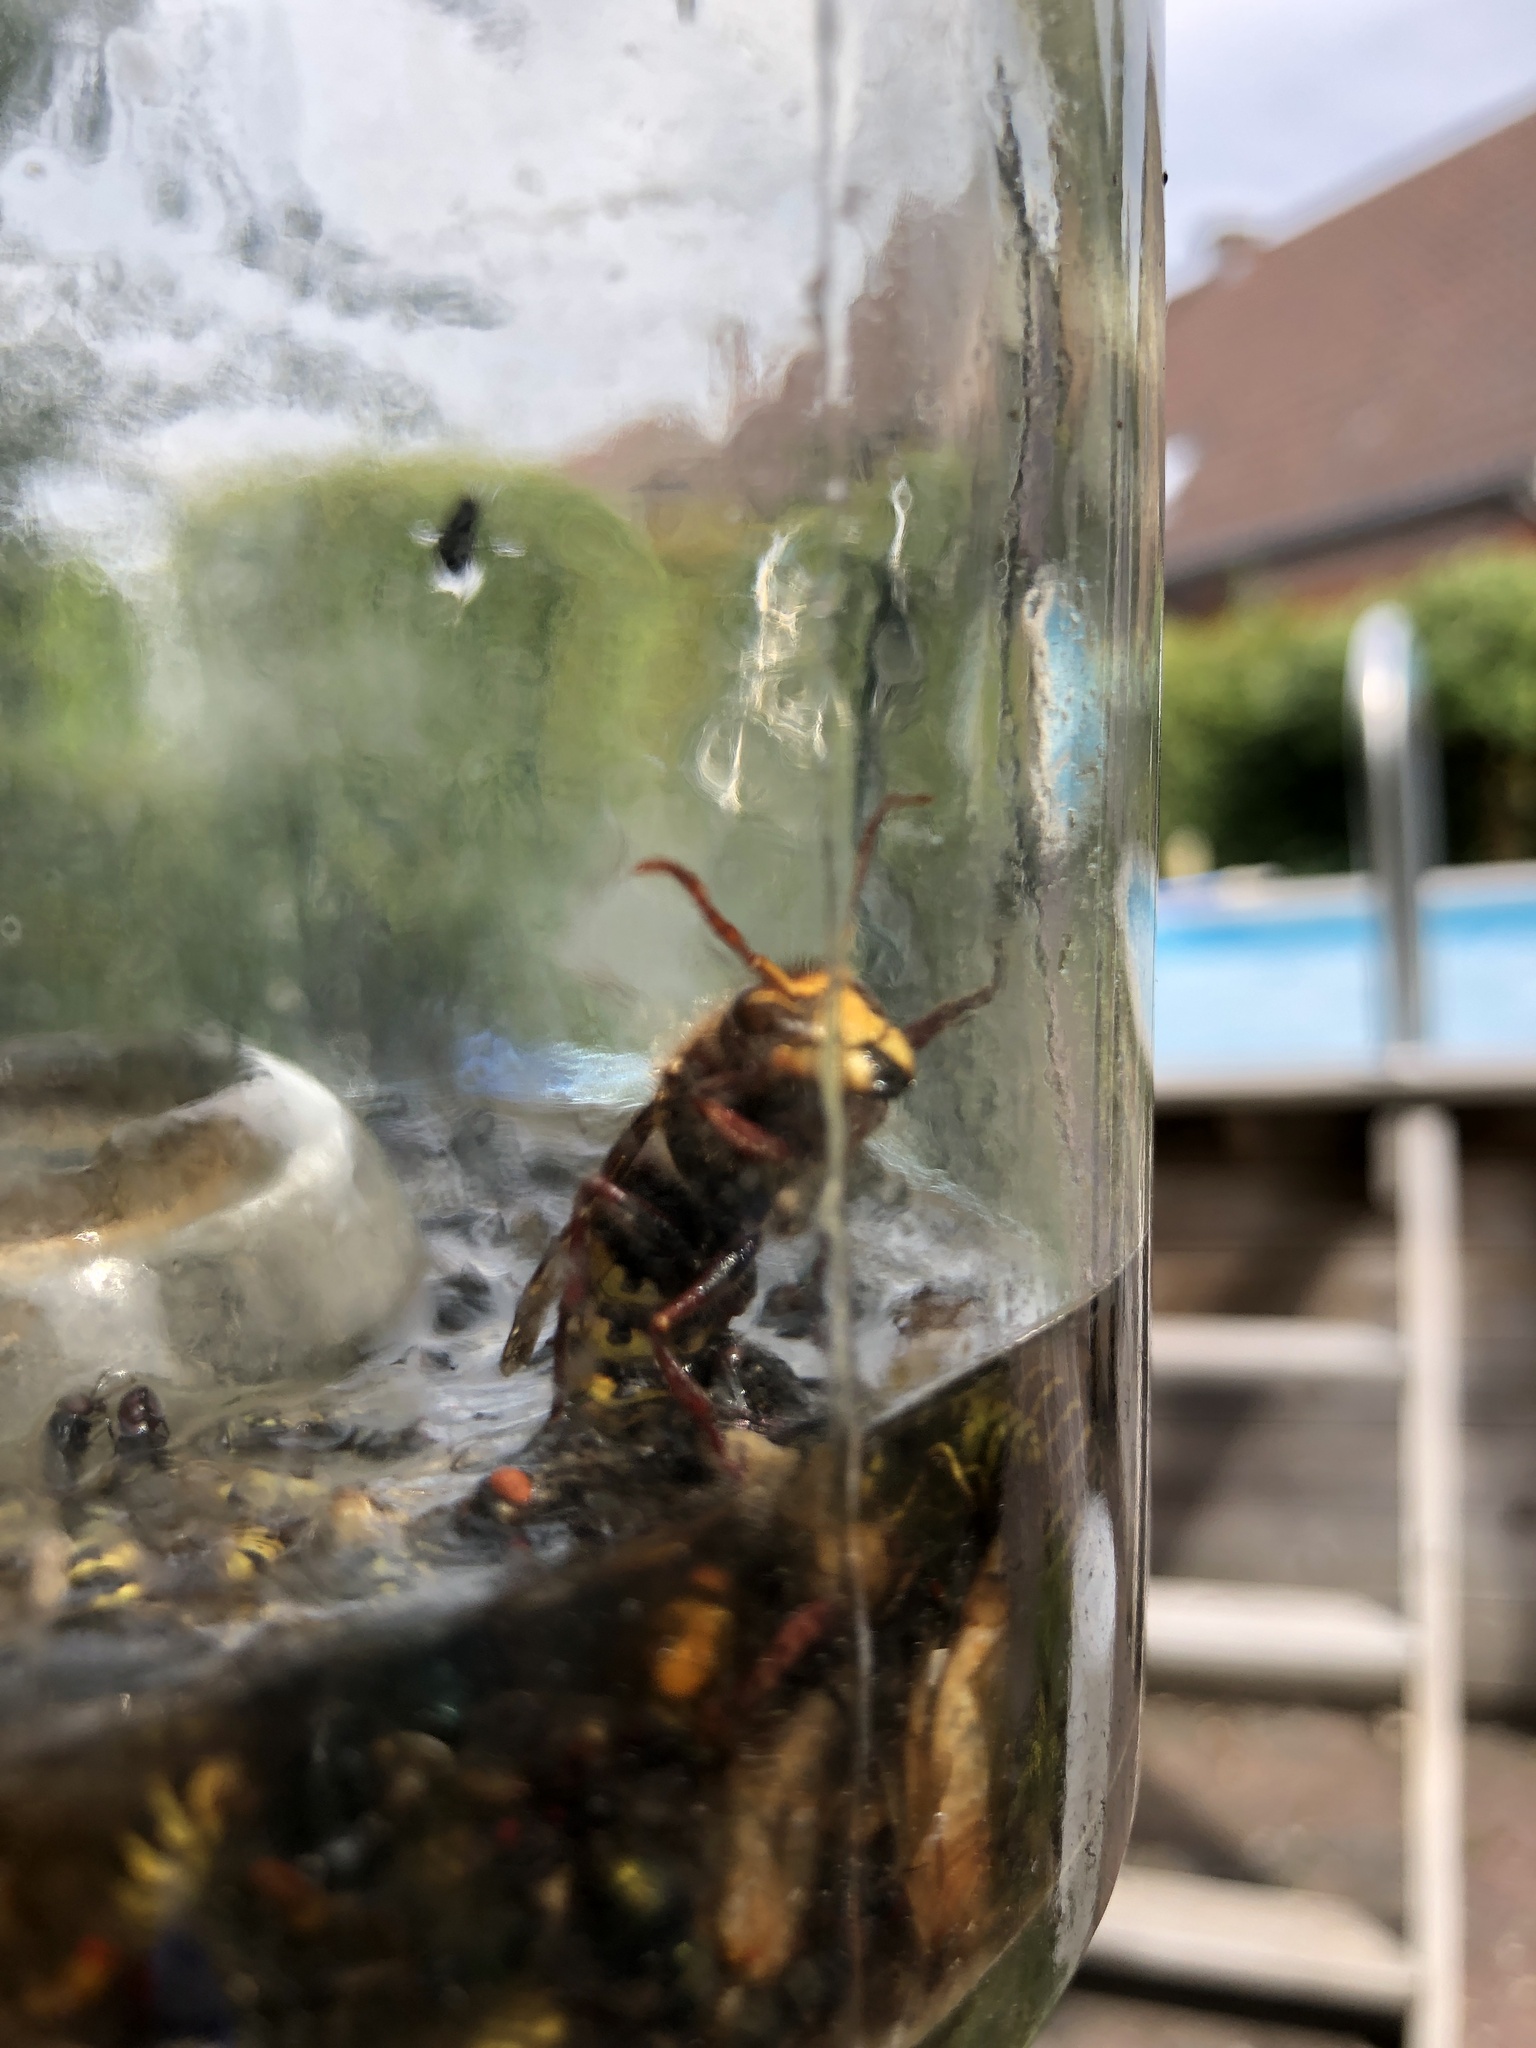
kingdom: Animalia
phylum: Arthropoda
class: Insecta
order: Hymenoptera
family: Vespidae
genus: Vespa
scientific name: Vespa crabro
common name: Hornet
